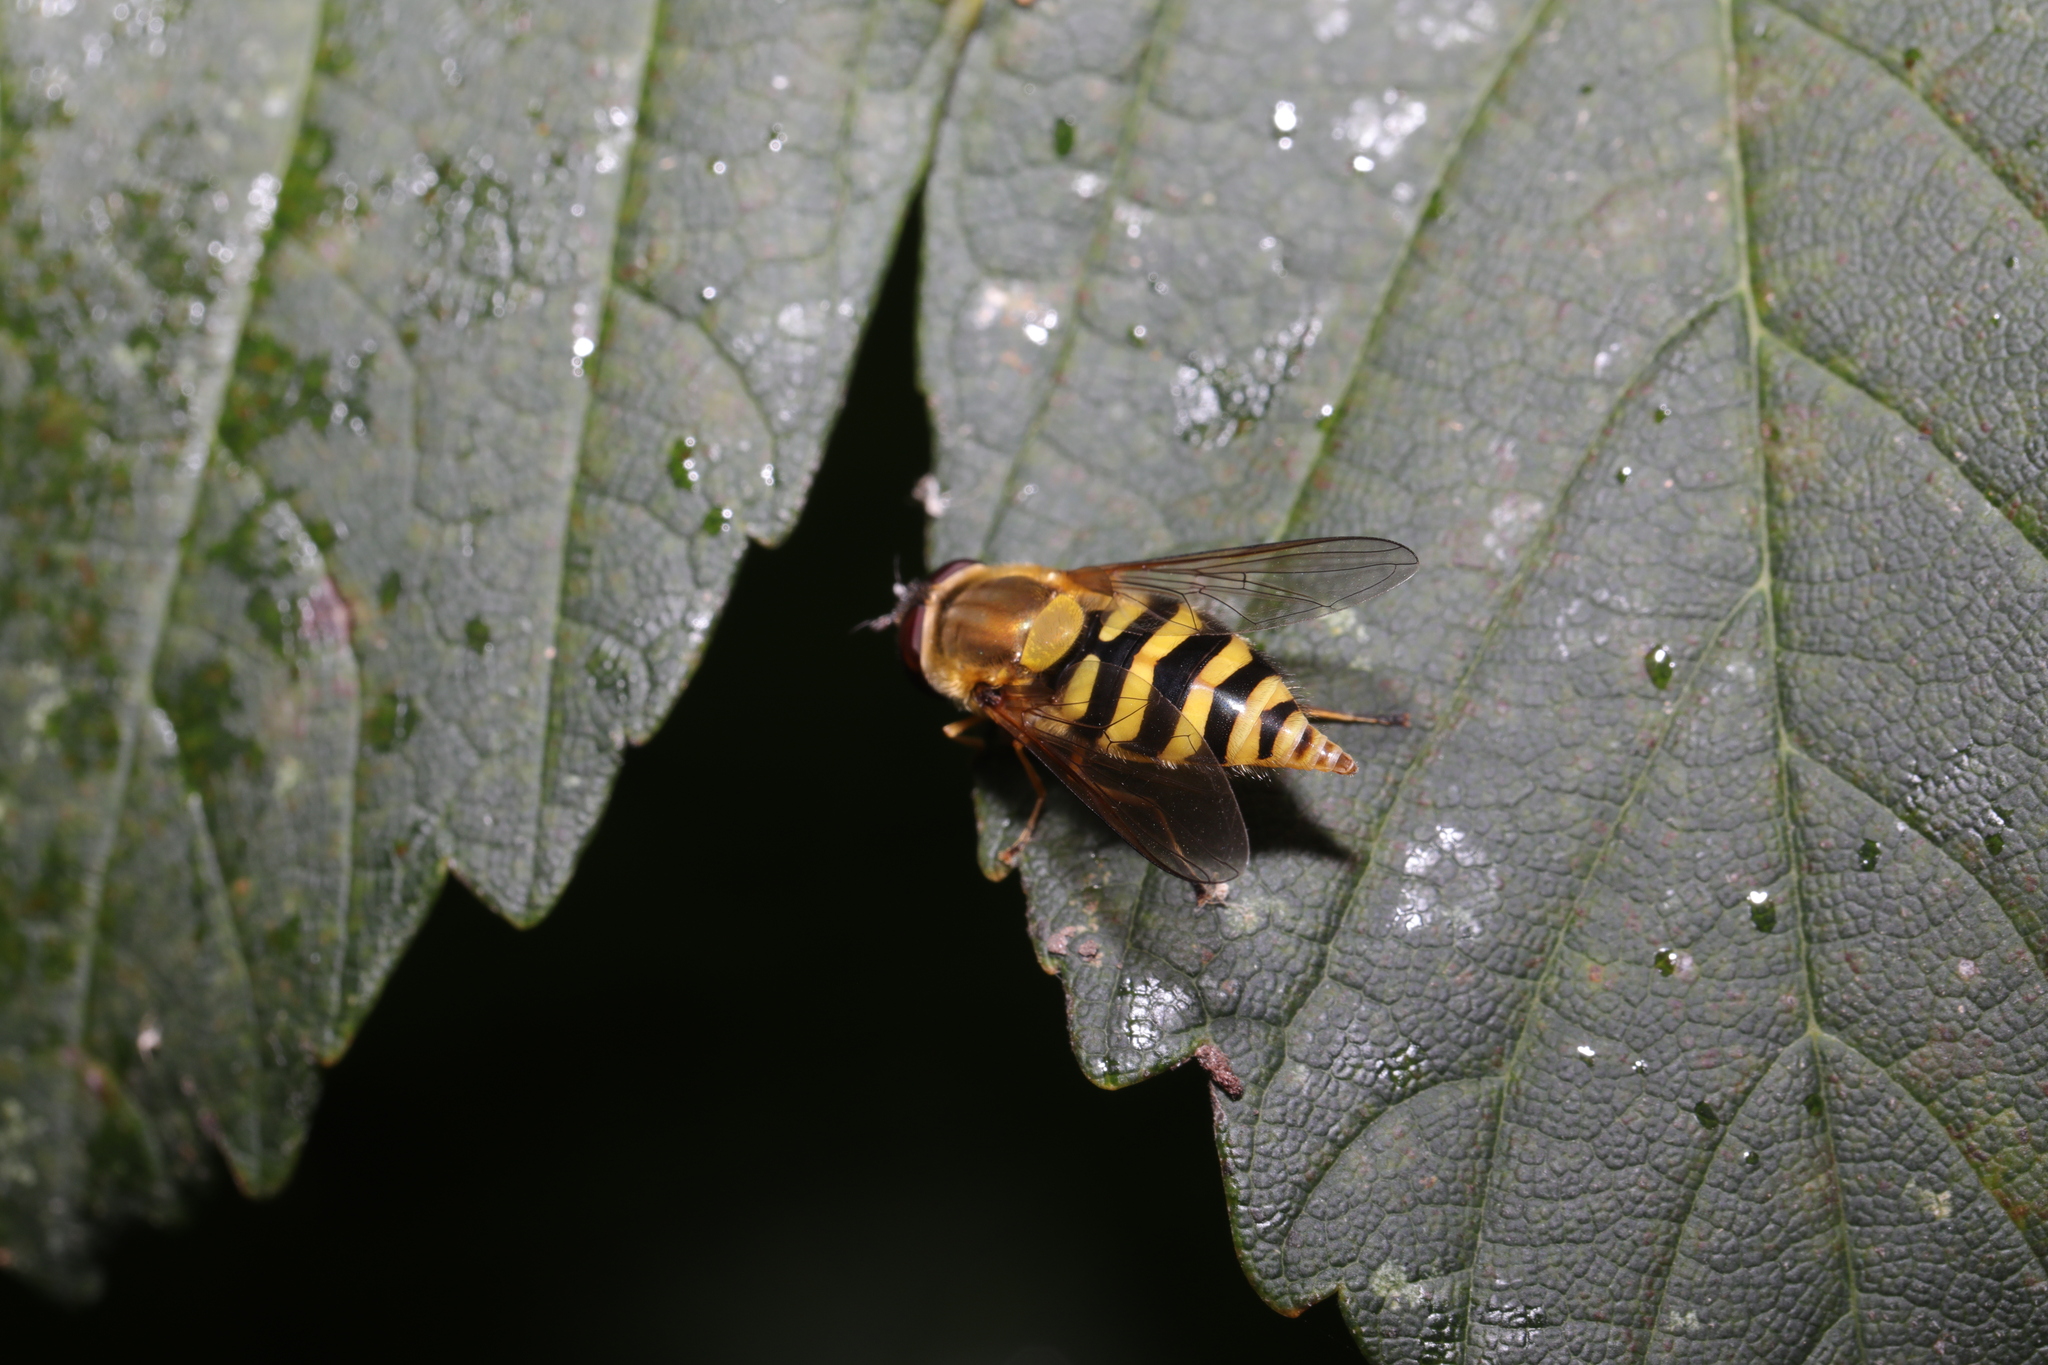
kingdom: Animalia
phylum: Arthropoda
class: Insecta
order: Diptera
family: Syrphidae
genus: Syrphus
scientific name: Syrphus
